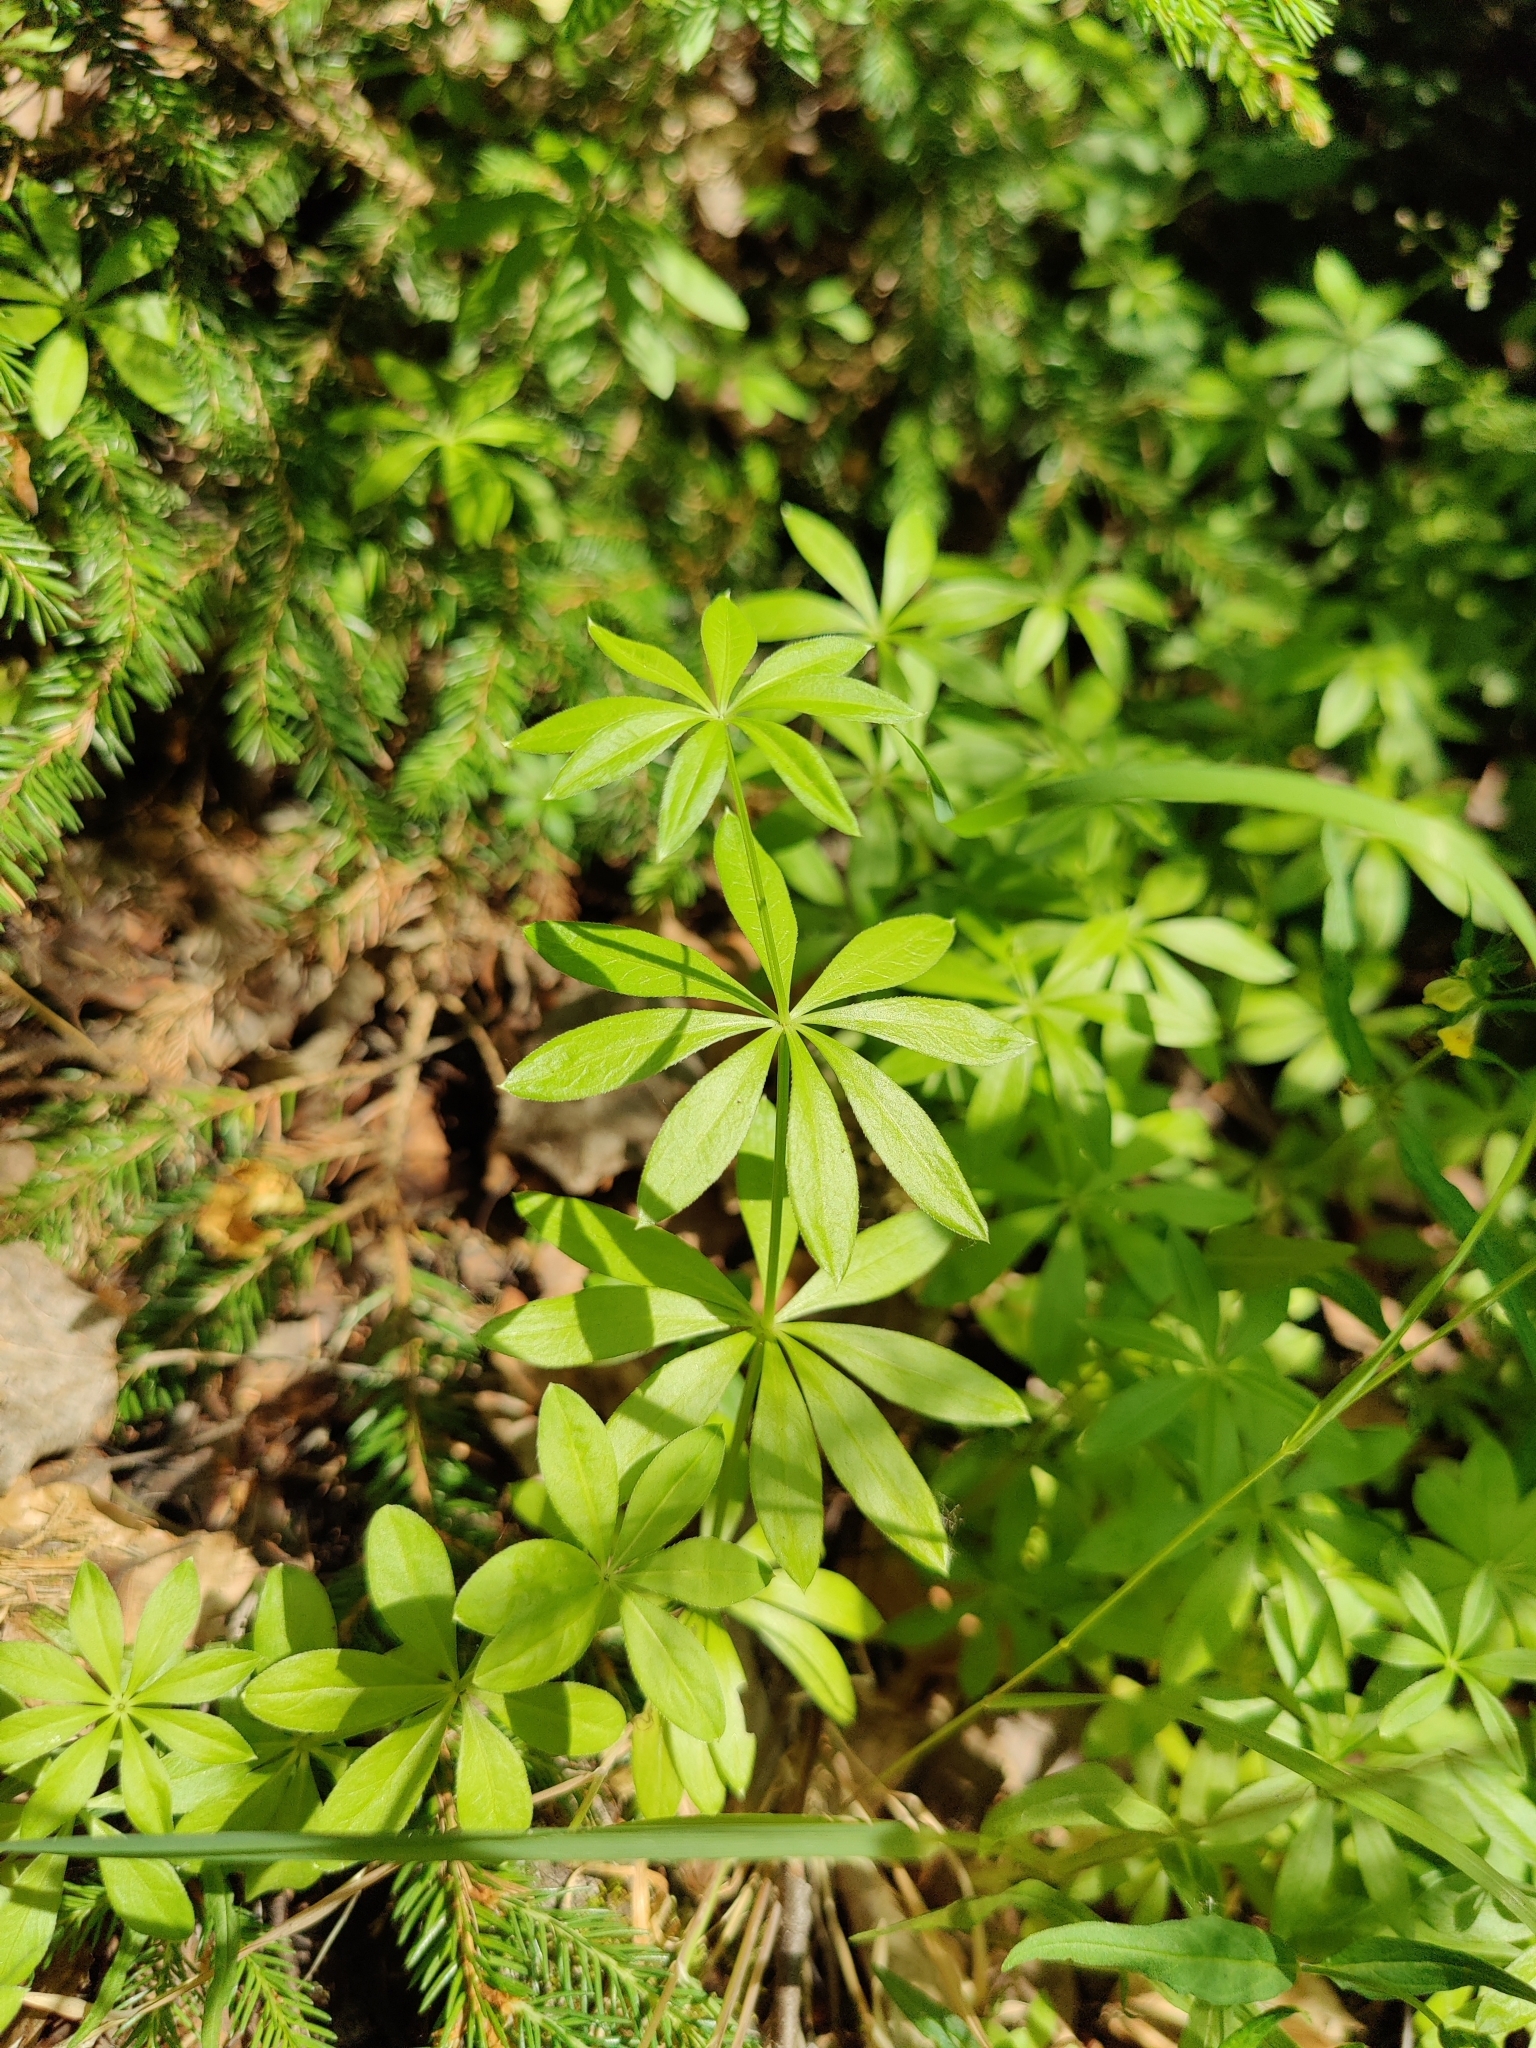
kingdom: Plantae
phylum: Tracheophyta
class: Magnoliopsida
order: Gentianales
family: Rubiaceae
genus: Galium
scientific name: Galium odoratum
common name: Sweet woodruff
